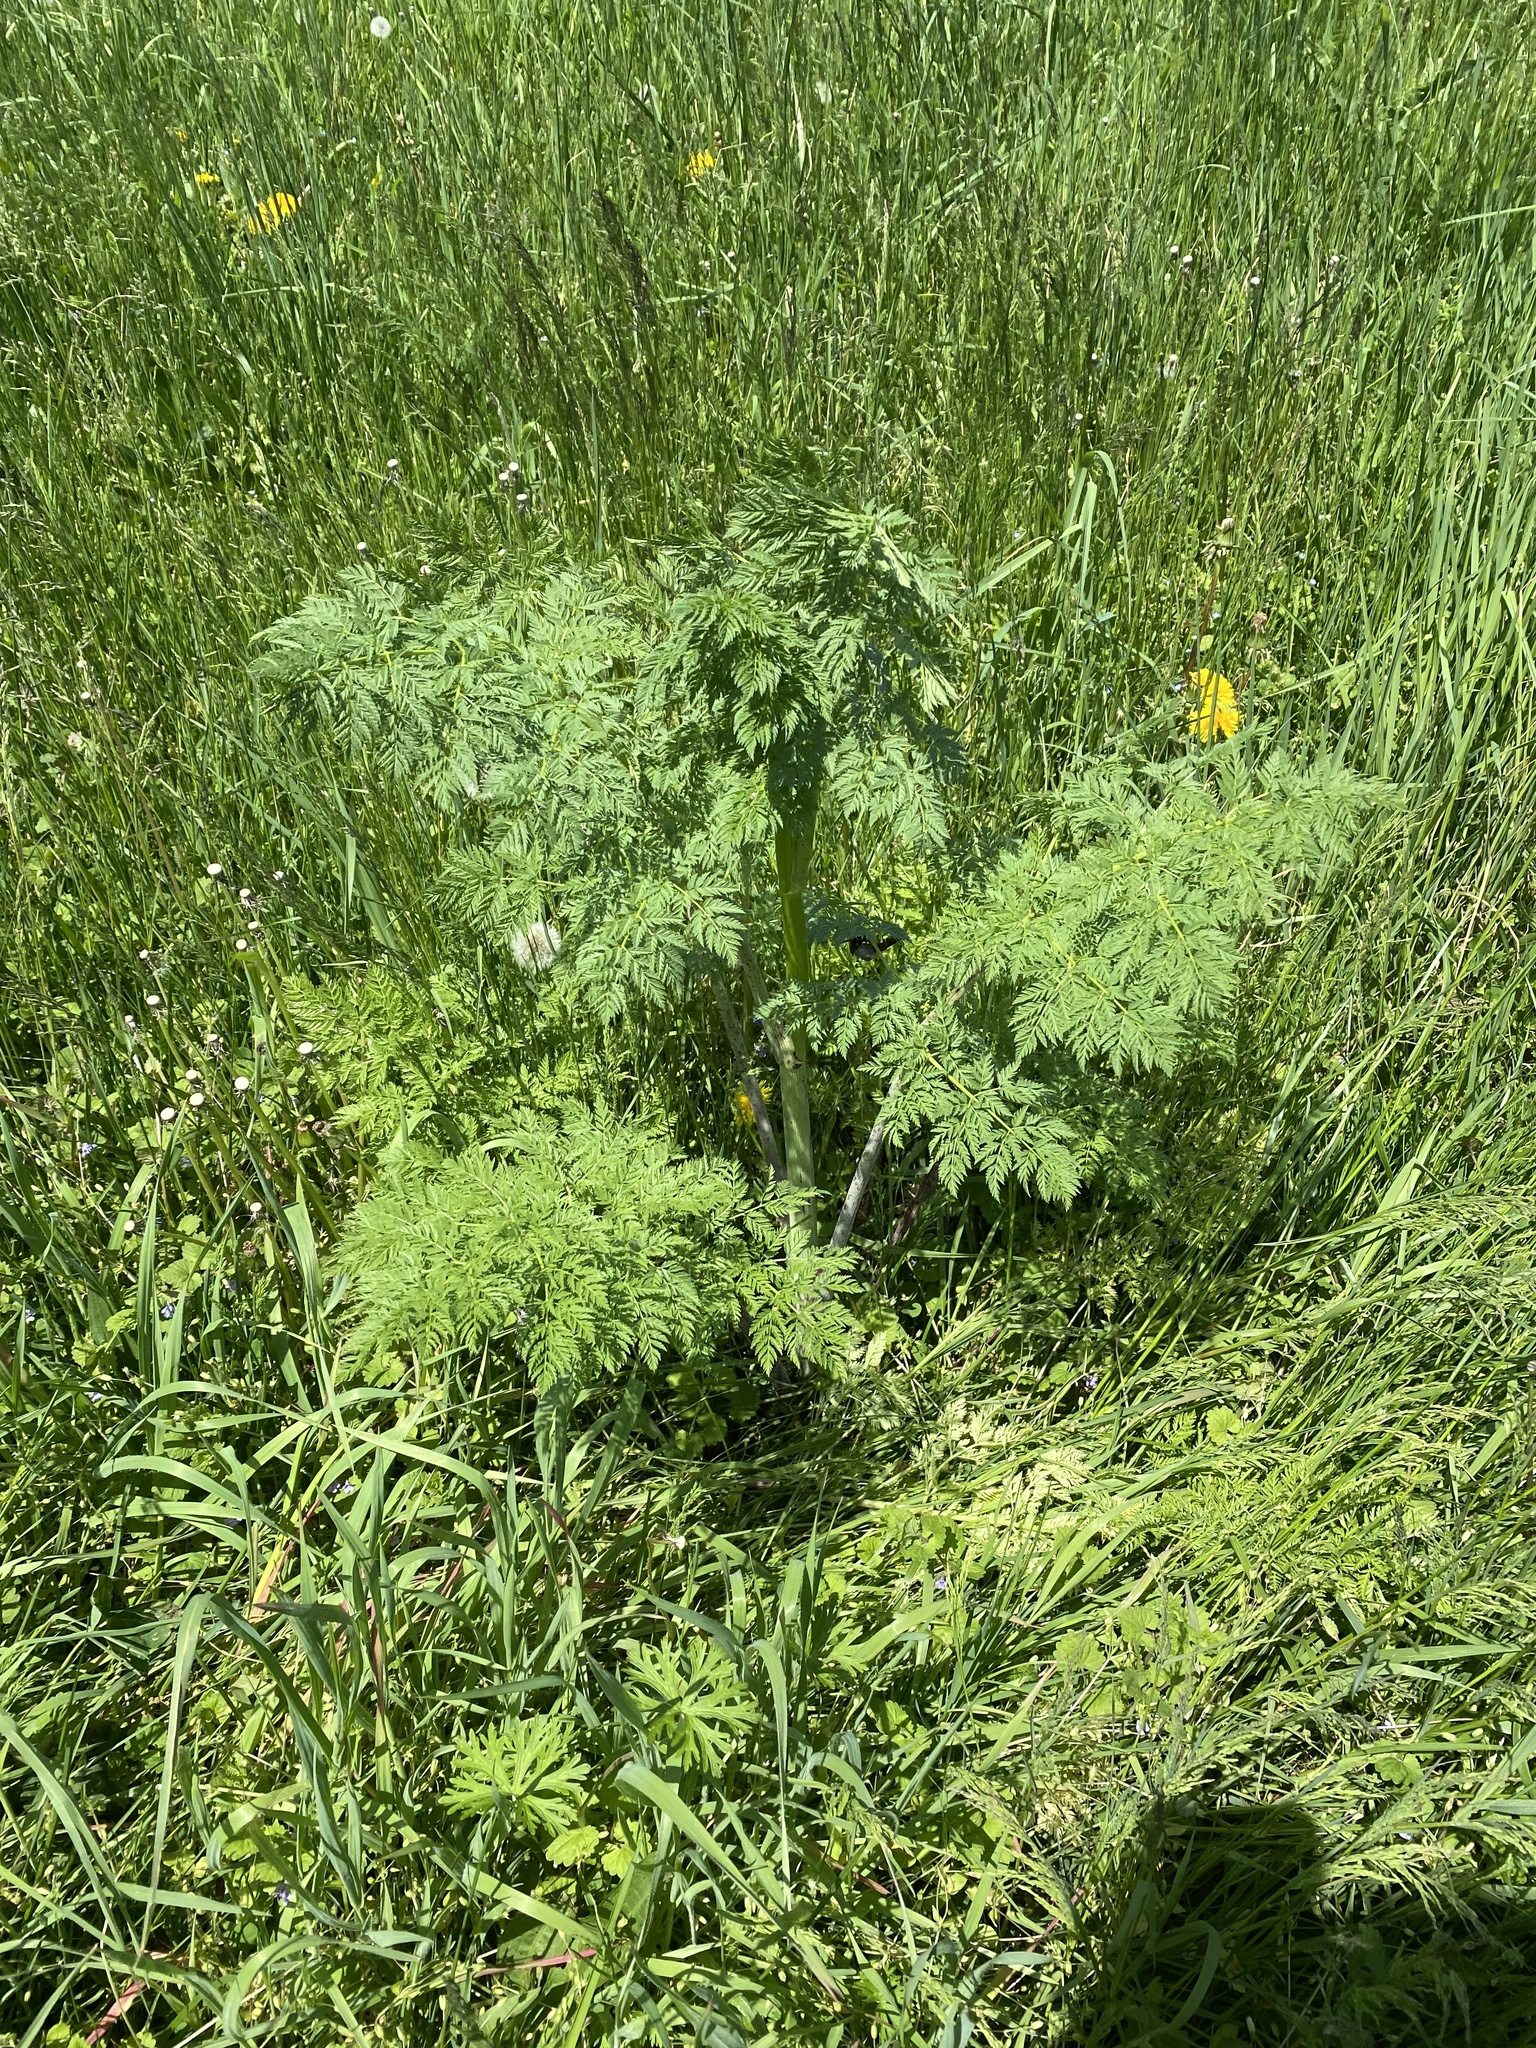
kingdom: Plantae
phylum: Tracheophyta
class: Magnoliopsida
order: Apiales
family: Apiaceae
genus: Conium
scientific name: Conium maculatum
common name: Hemlock
